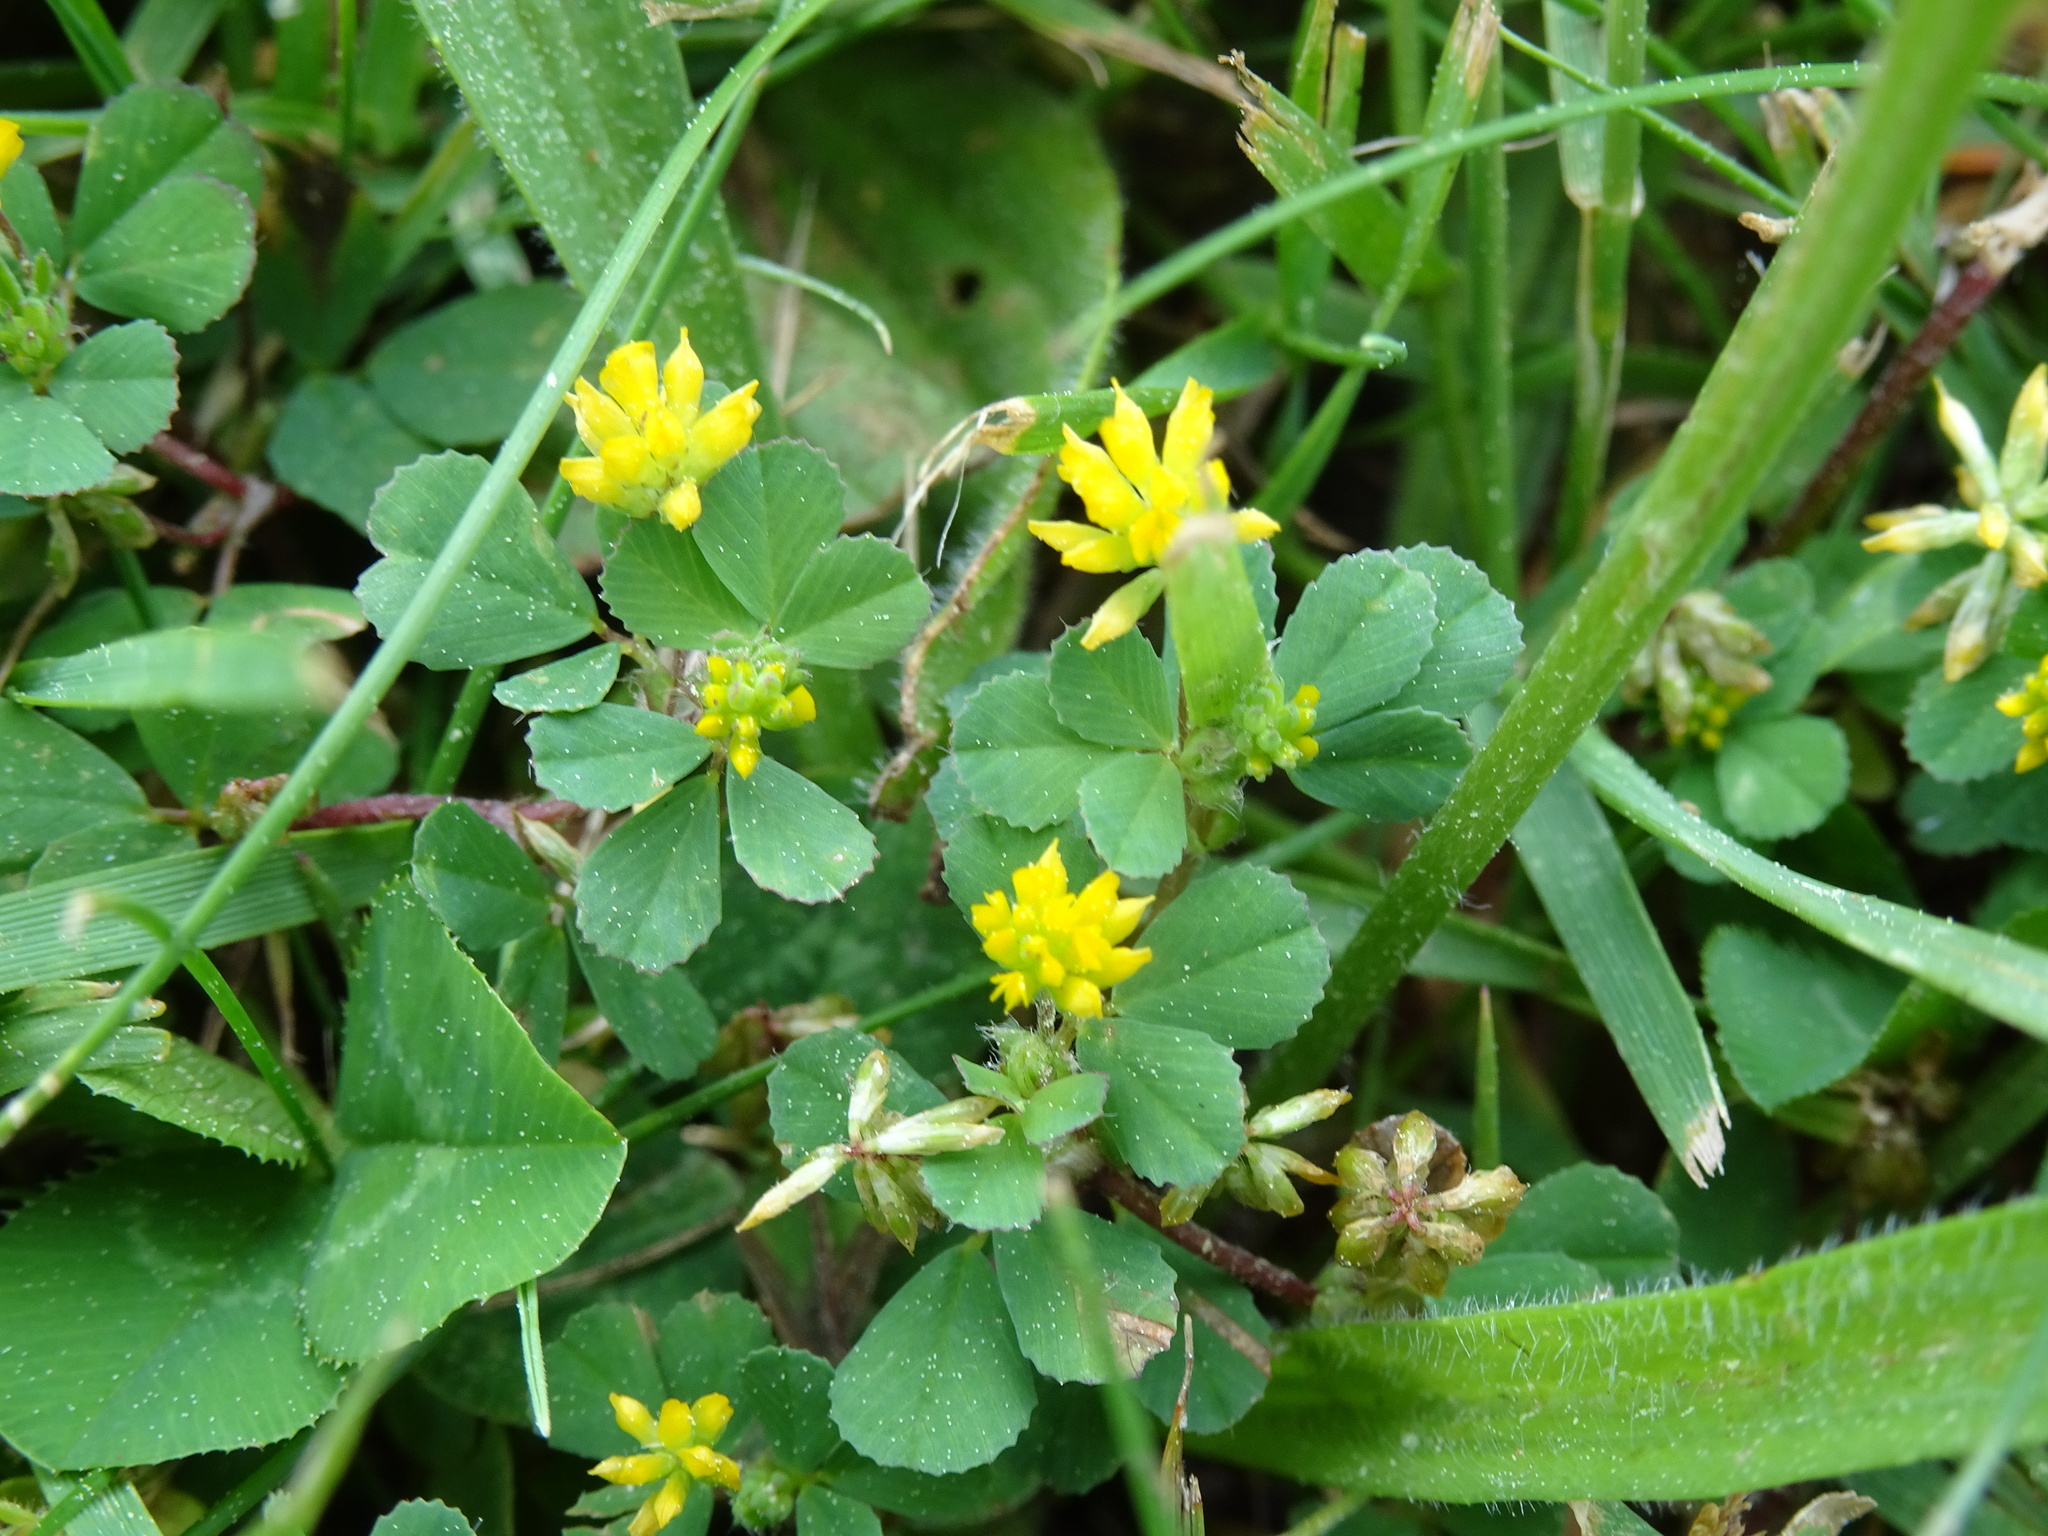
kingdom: Plantae
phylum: Tracheophyta
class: Magnoliopsida
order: Fabales
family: Fabaceae
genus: Trifolium
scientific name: Trifolium dubium
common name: Suckling clover
